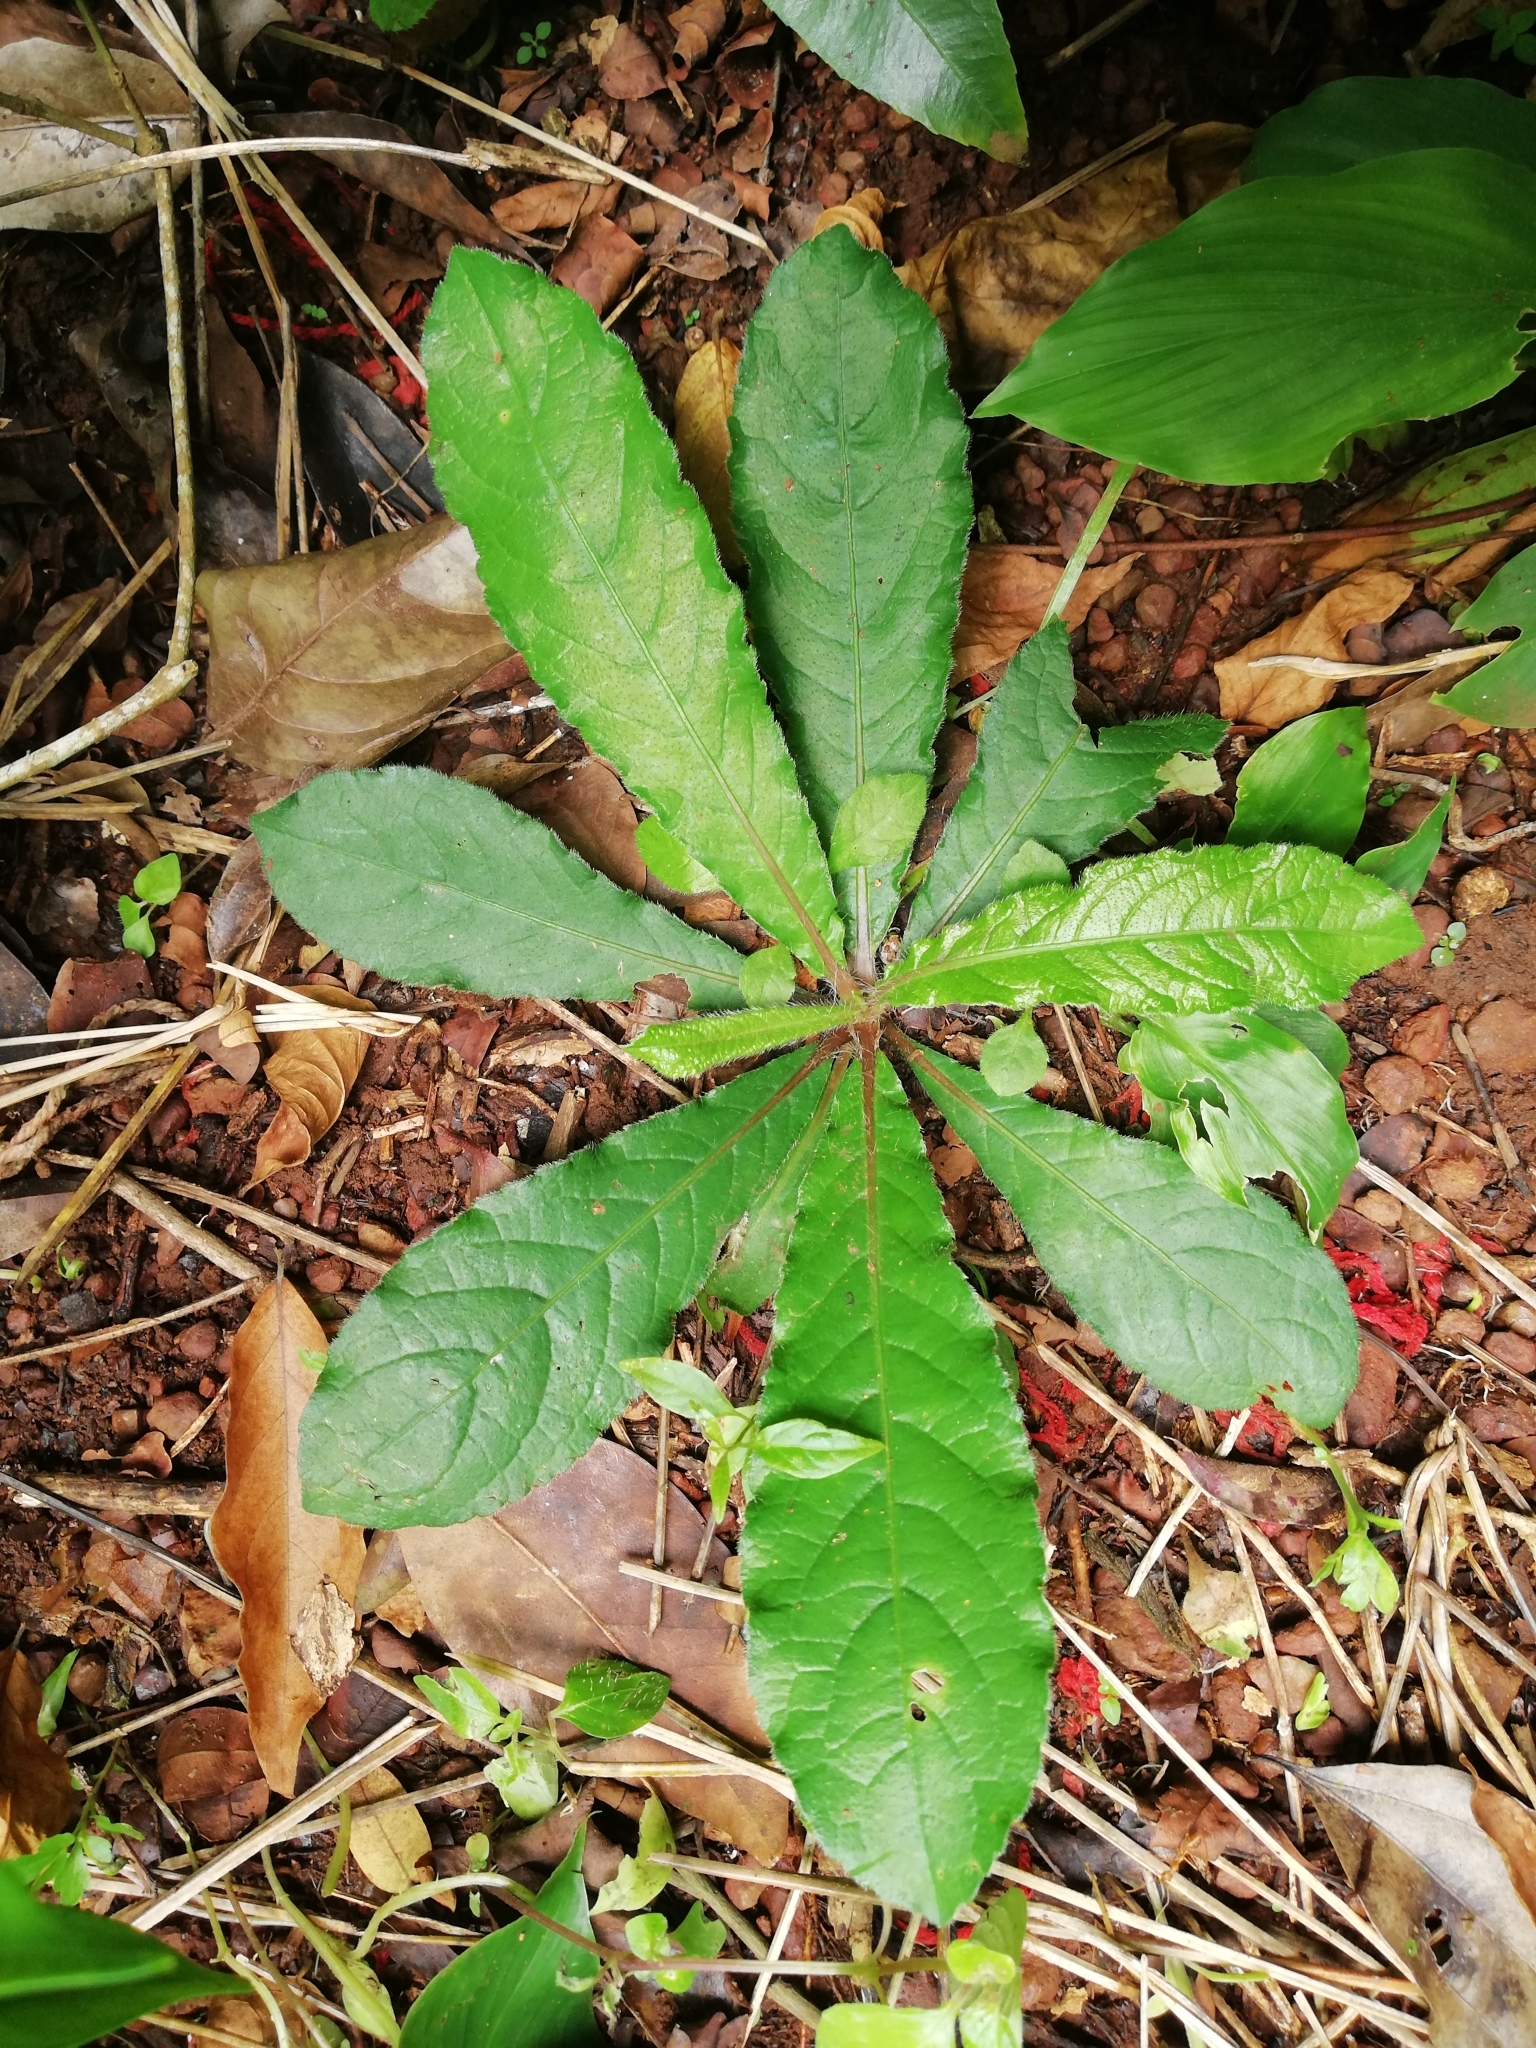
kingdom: Plantae
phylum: Tracheophyta
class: Magnoliopsida
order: Asterales
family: Asteraceae
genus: Elephantopus
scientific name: Elephantopus scaber
